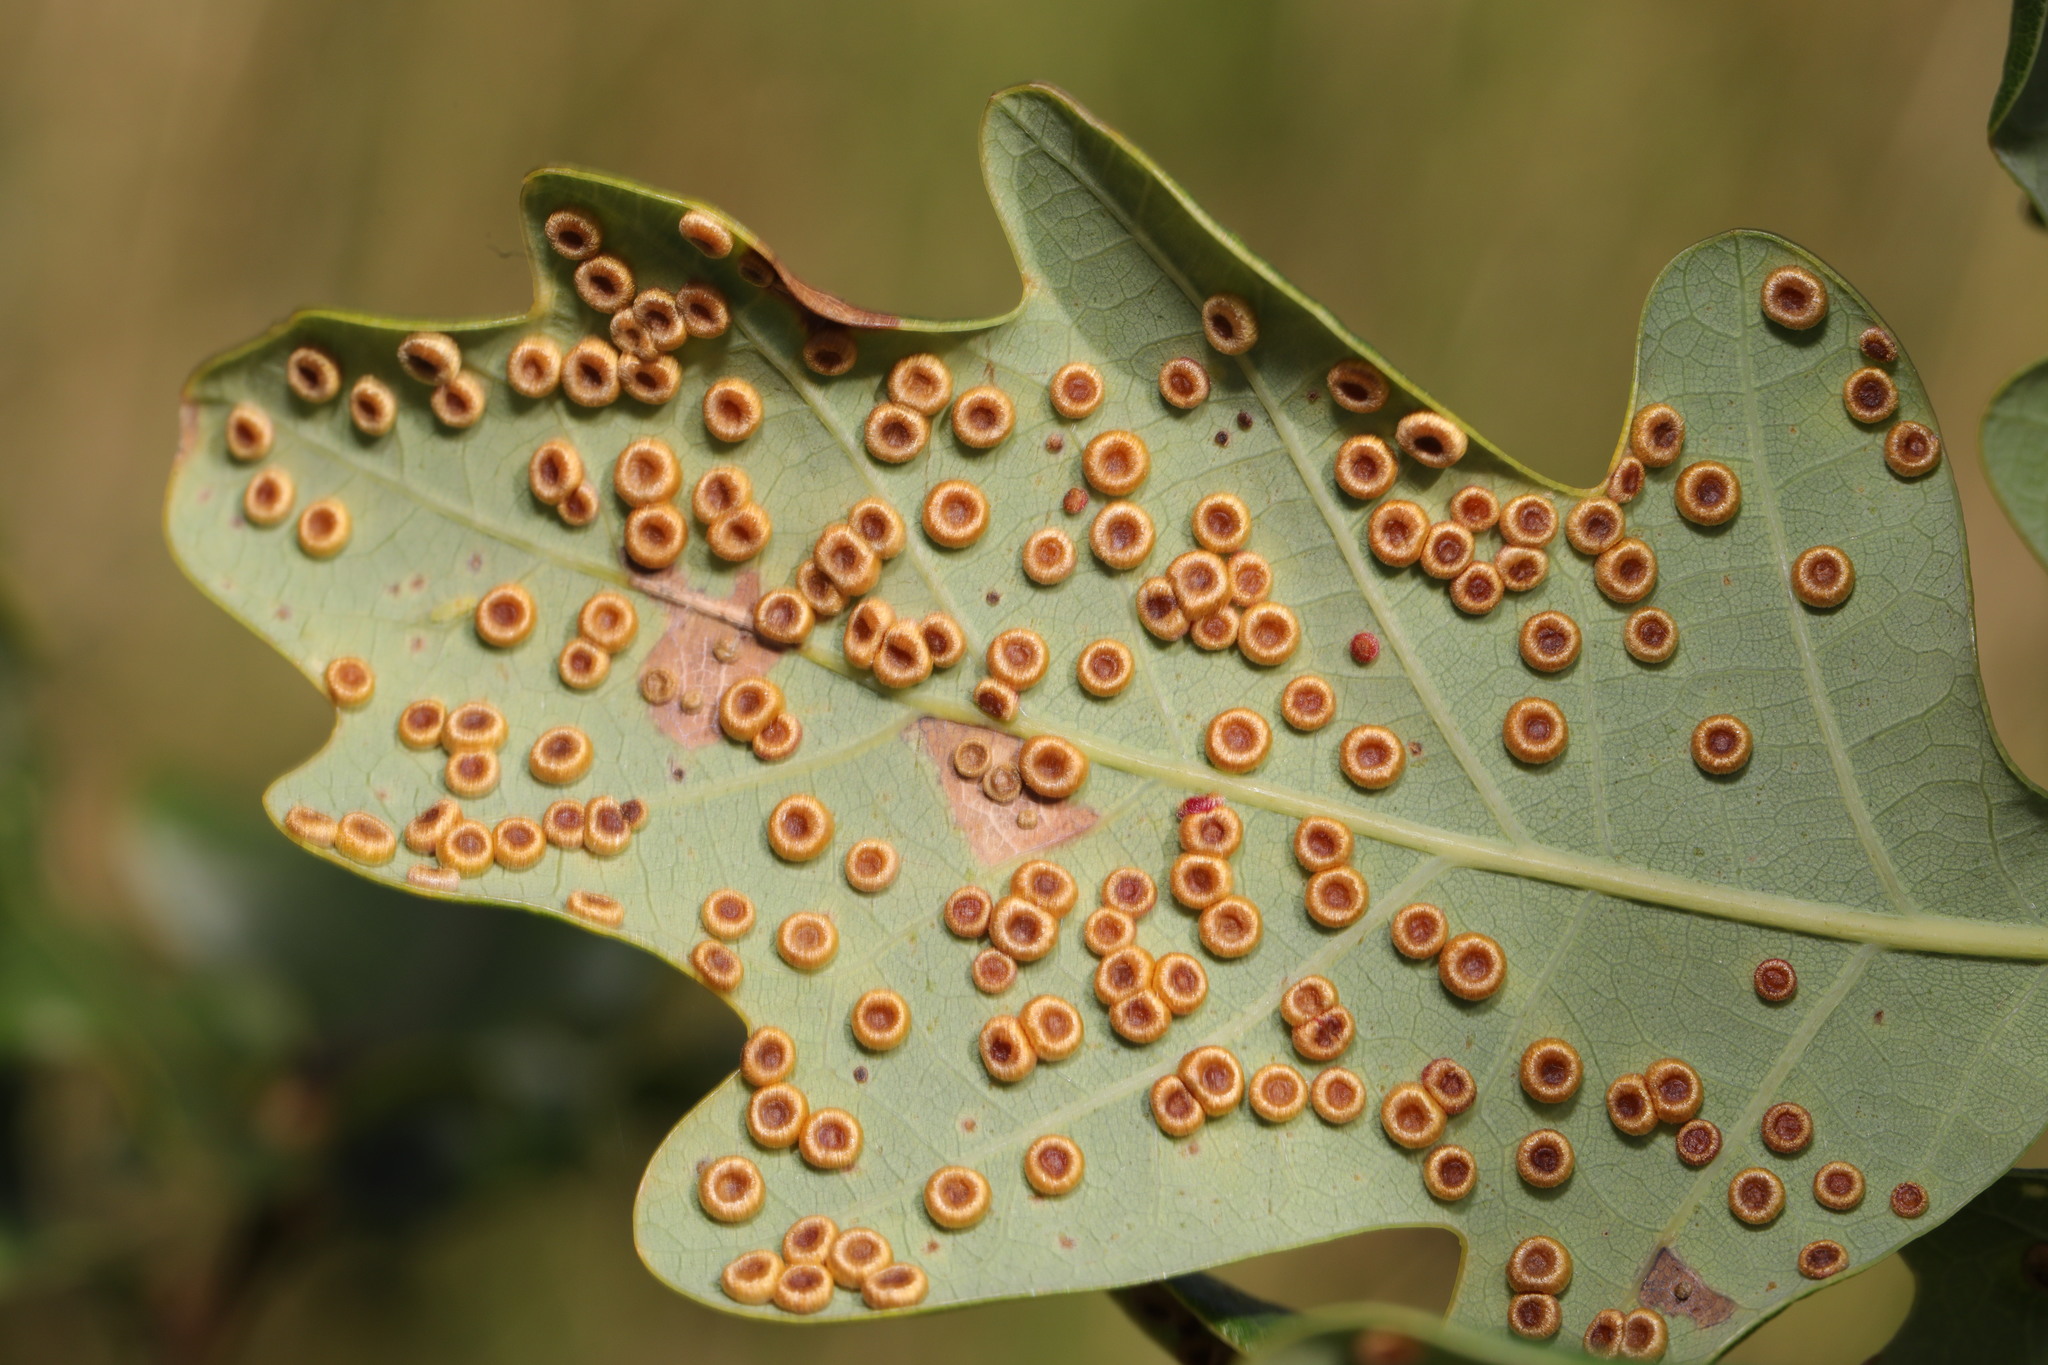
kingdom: Animalia
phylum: Arthropoda
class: Insecta
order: Hymenoptera
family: Cynipidae
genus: Neuroterus
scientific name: Neuroterus numismalis
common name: Silk-button spangle gall
